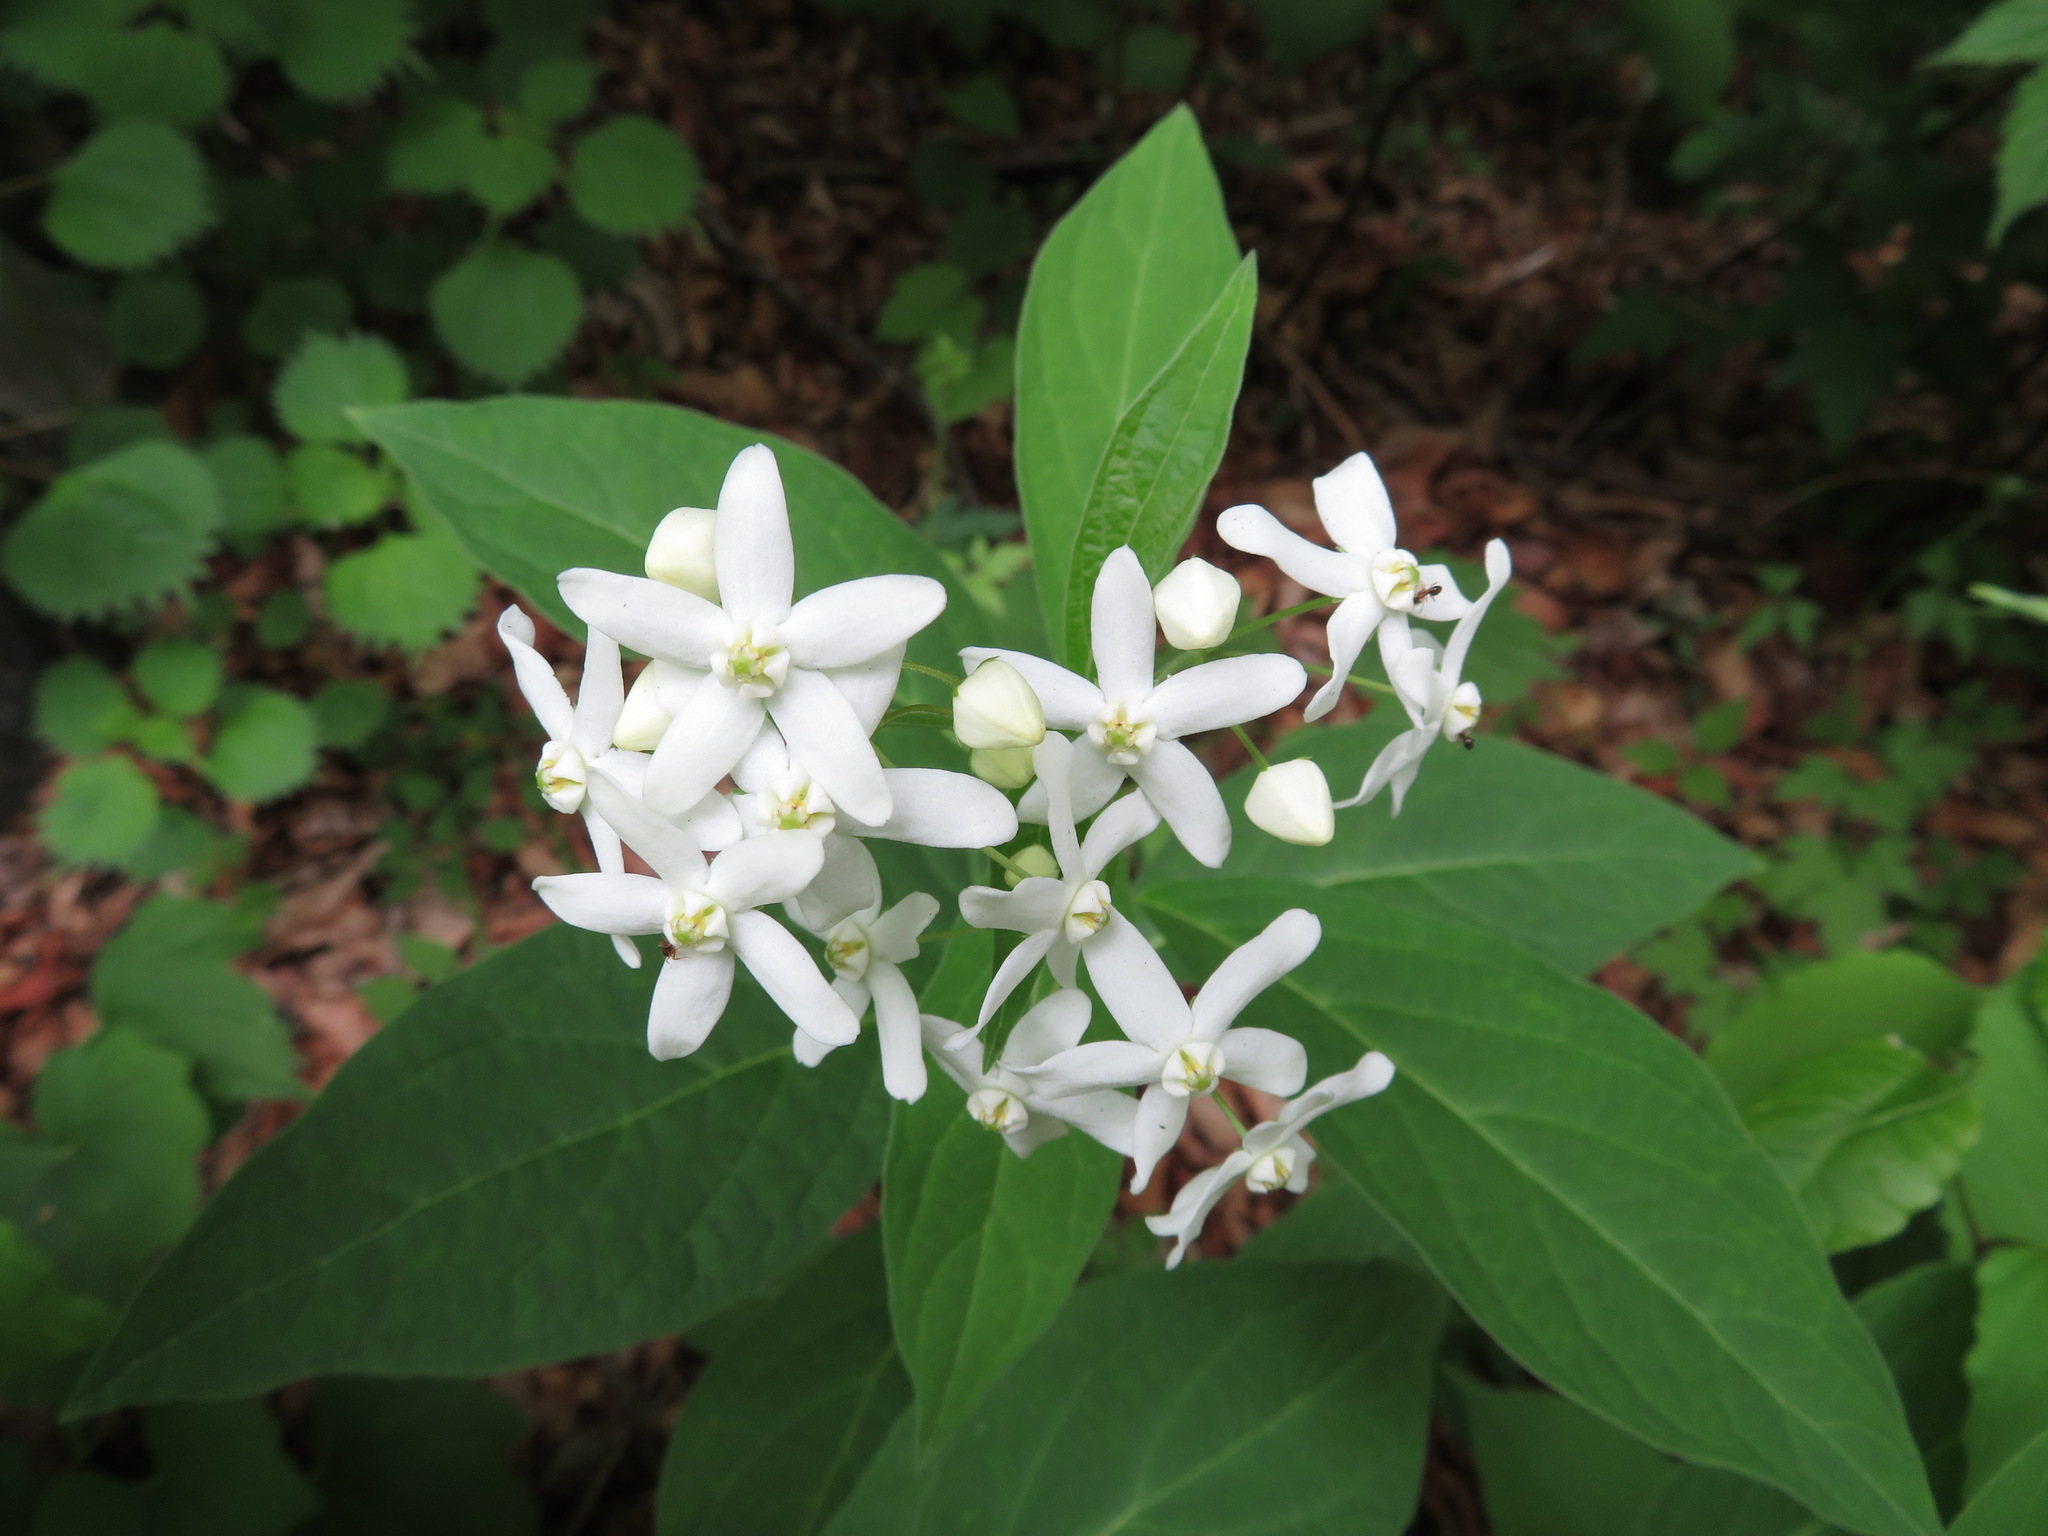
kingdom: Plantae
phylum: Tracheophyta
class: Magnoliopsida
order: Gentianales
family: Apocynaceae
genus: Vincetoxicum
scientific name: Vincetoxicum ascyrifolium
